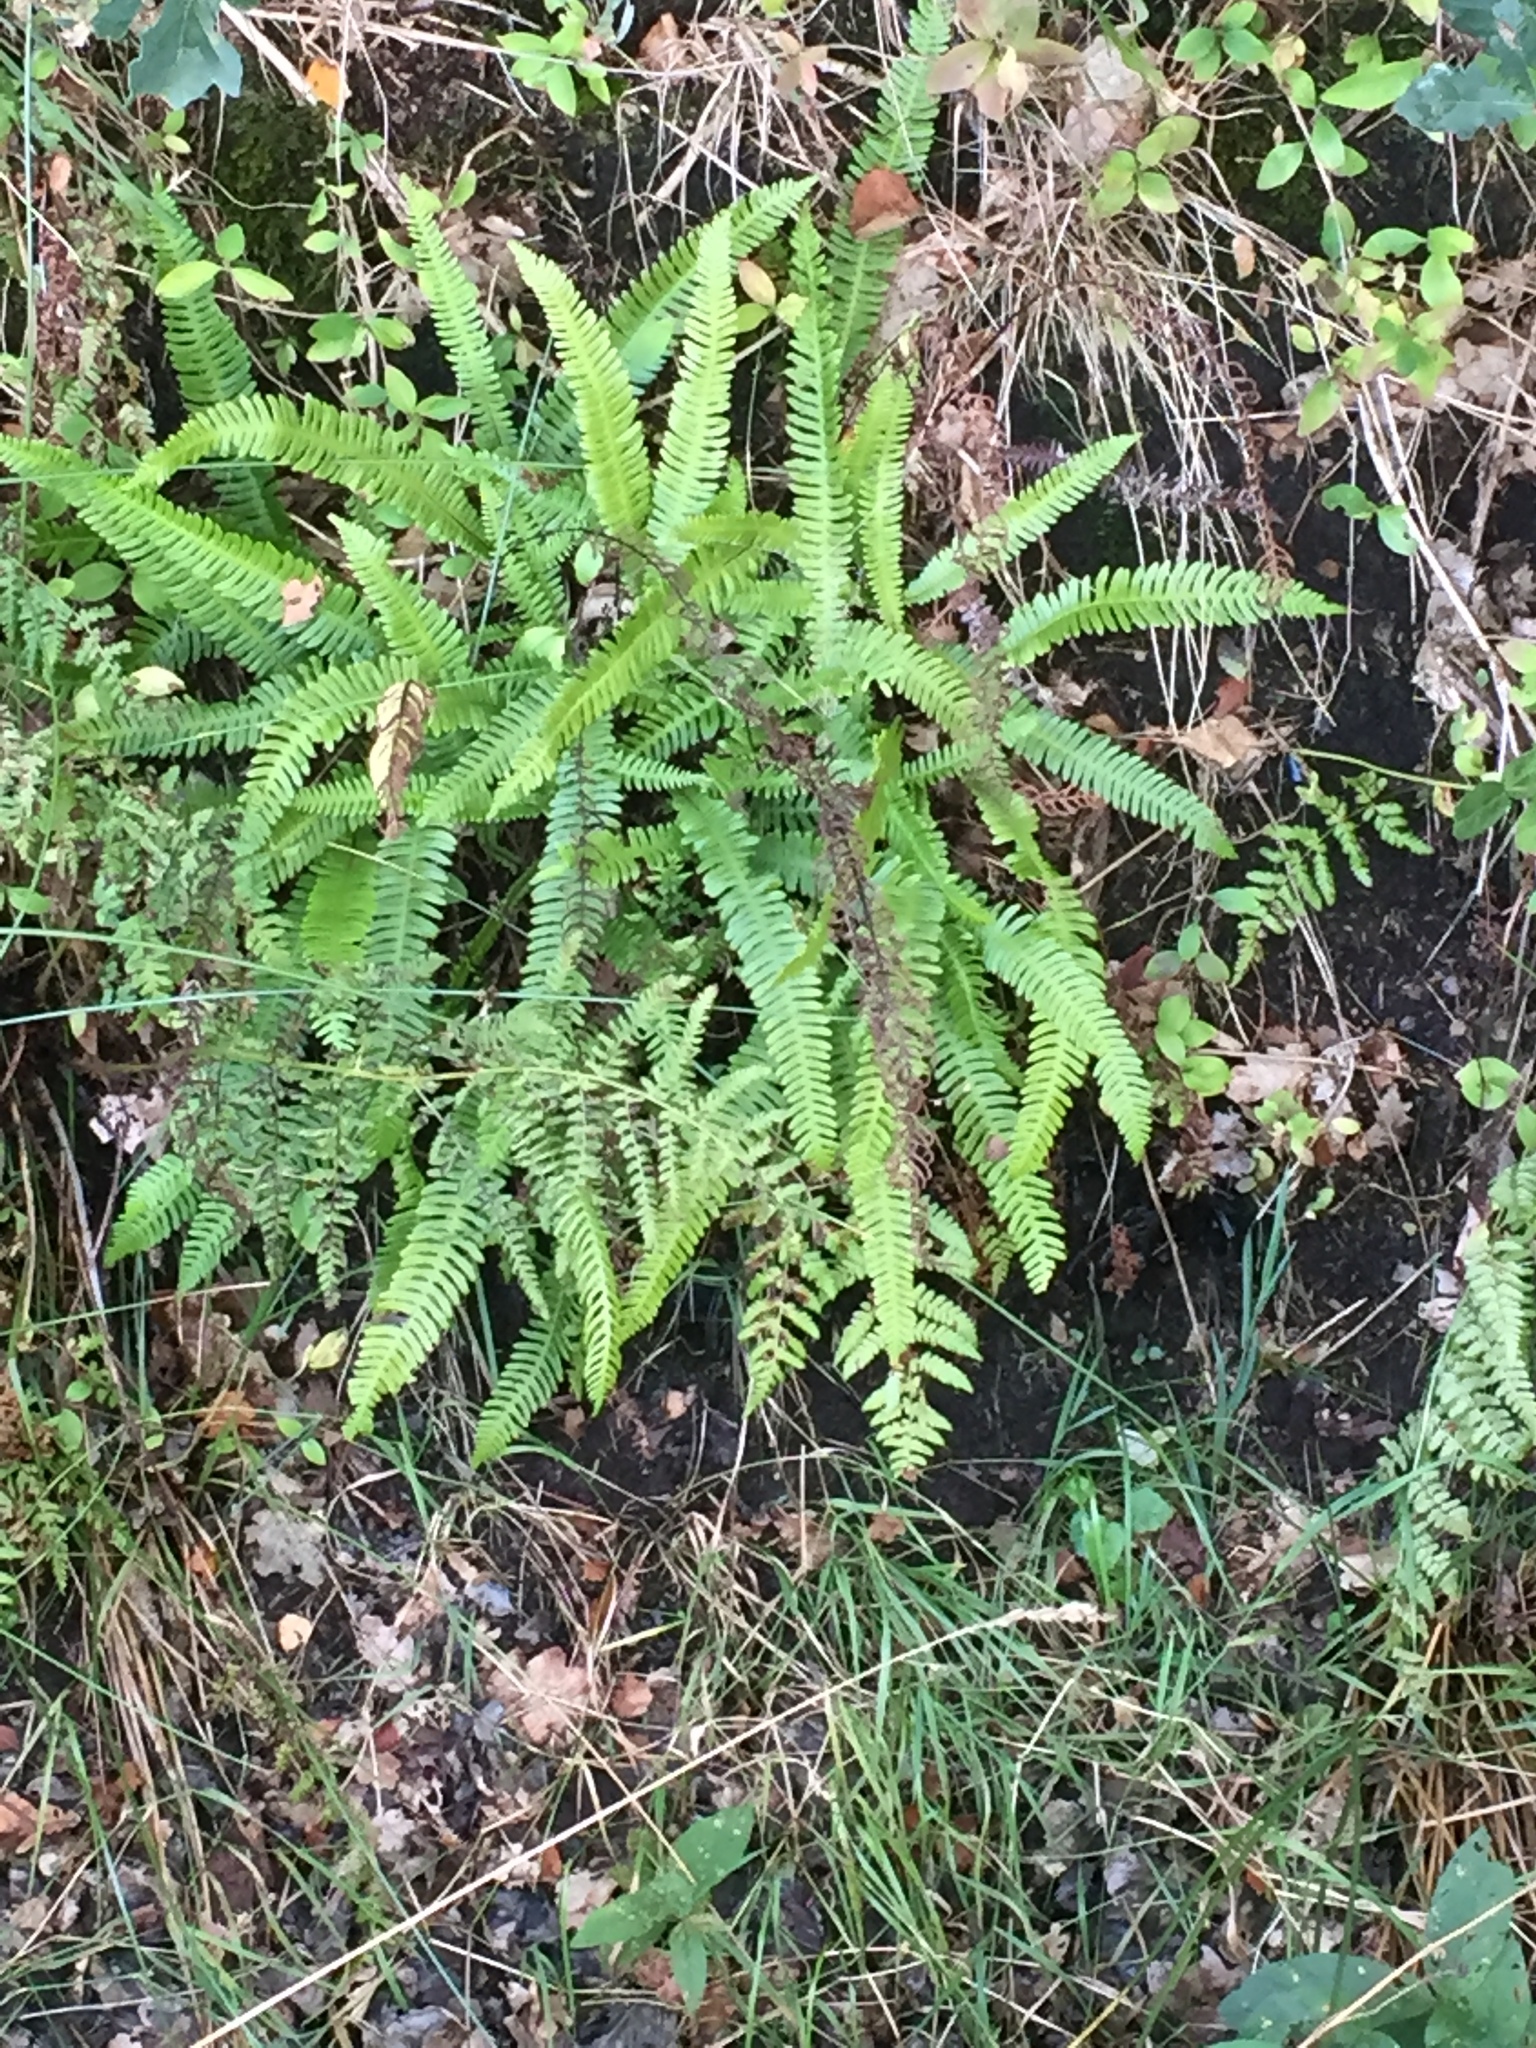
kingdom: Plantae
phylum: Tracheophyta
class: Polypodiopsida
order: Polypodiales
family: Blechnaceae
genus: Struthiopteris
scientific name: Struthiopteris spicant
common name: Deer fern
